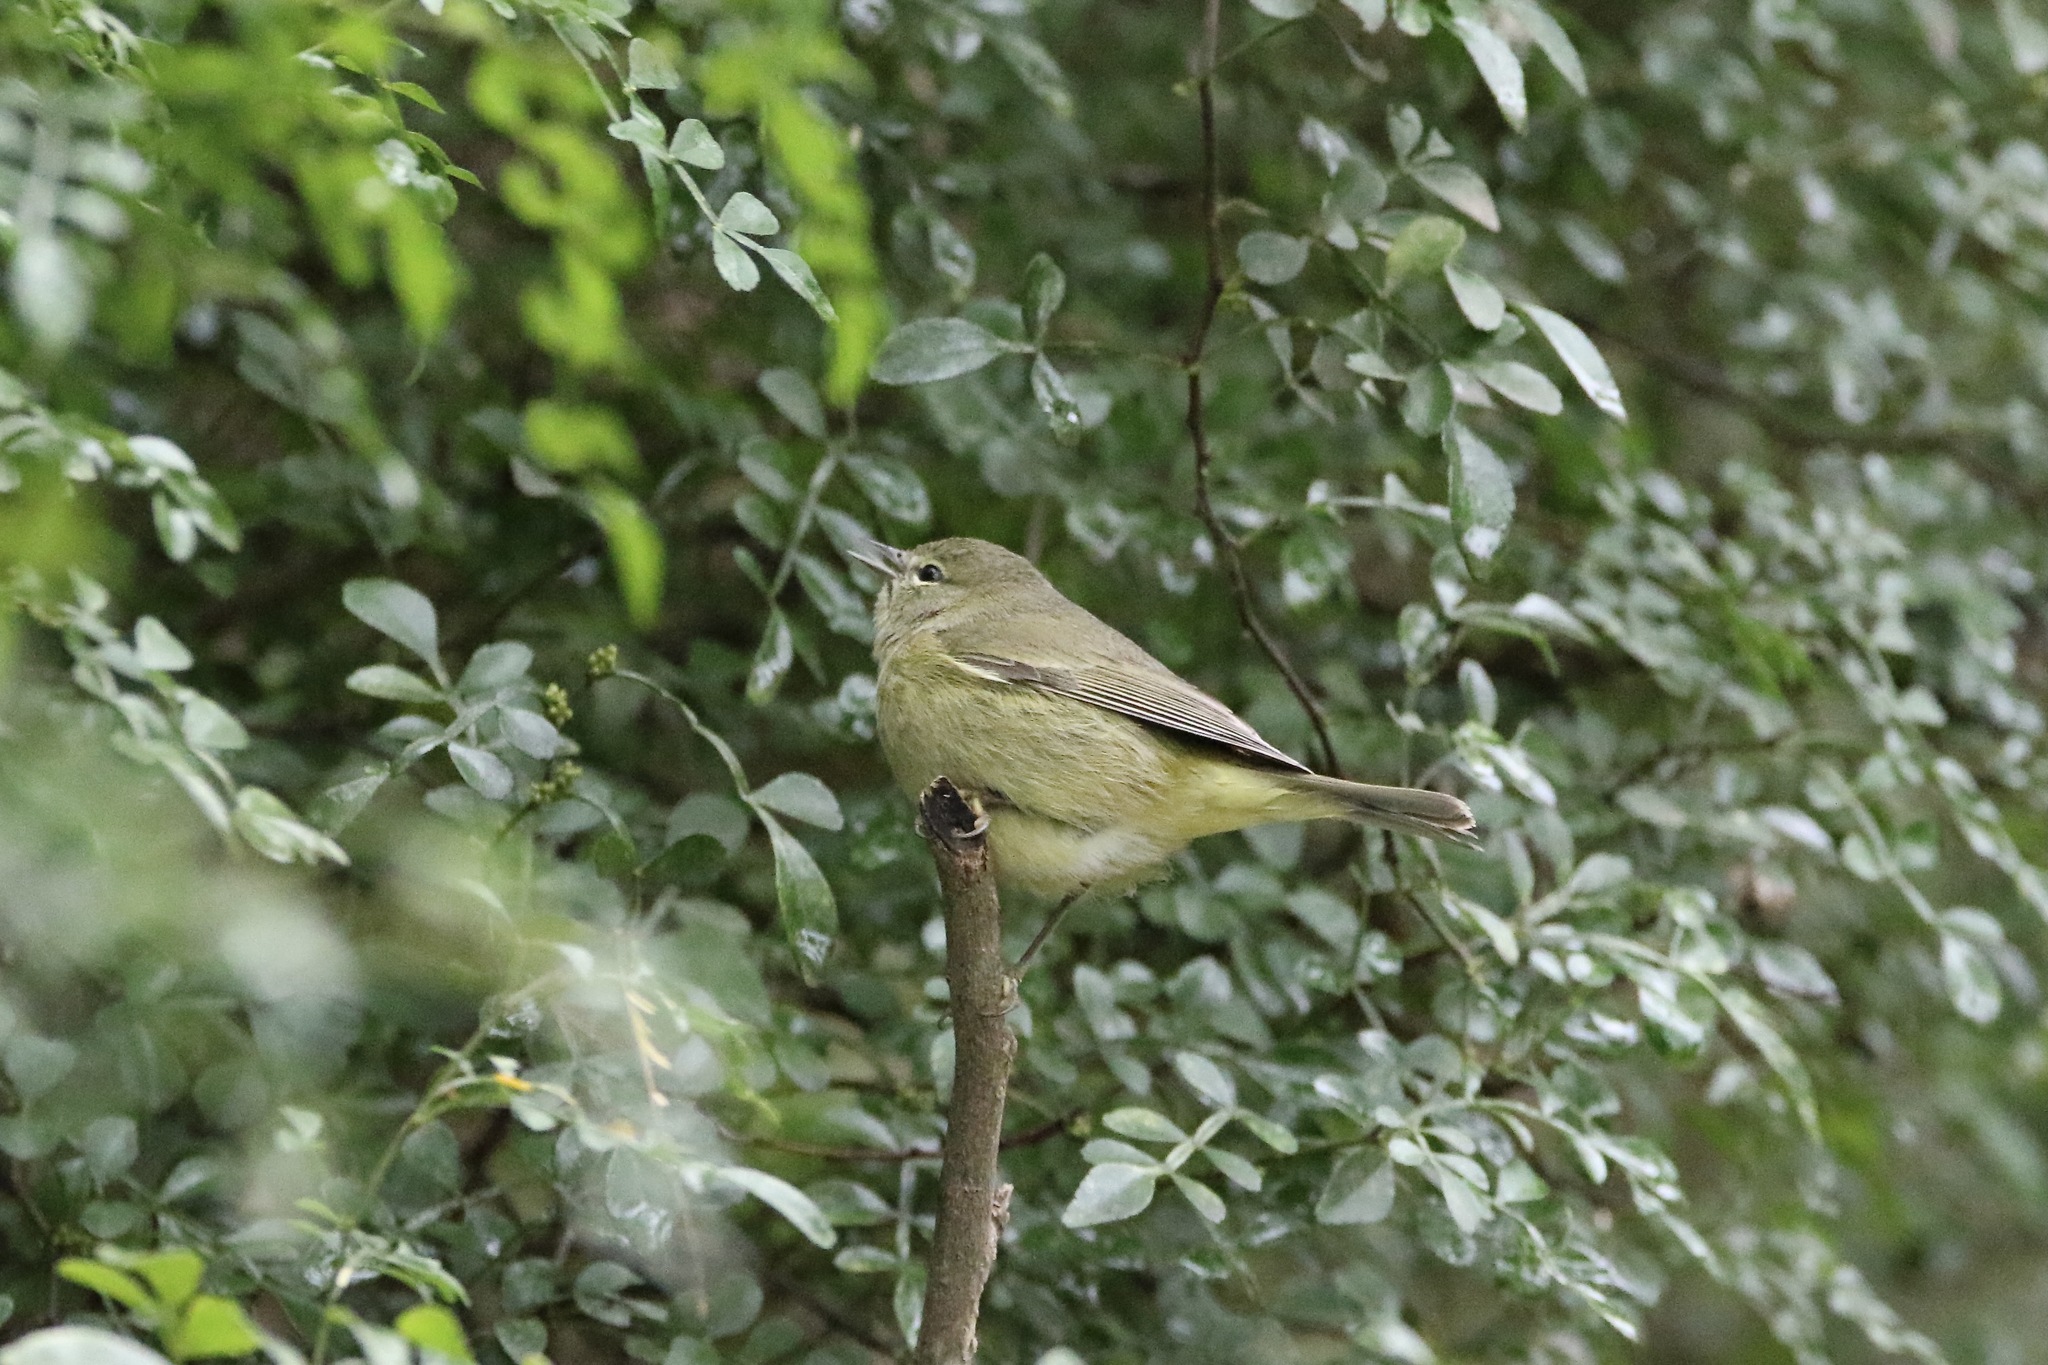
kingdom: Animalia
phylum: Chordata
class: Aves
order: Passeriformes
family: Parulidae
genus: Leiothlypis
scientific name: Leiothlypis celata
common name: Orange-crowned warbler
